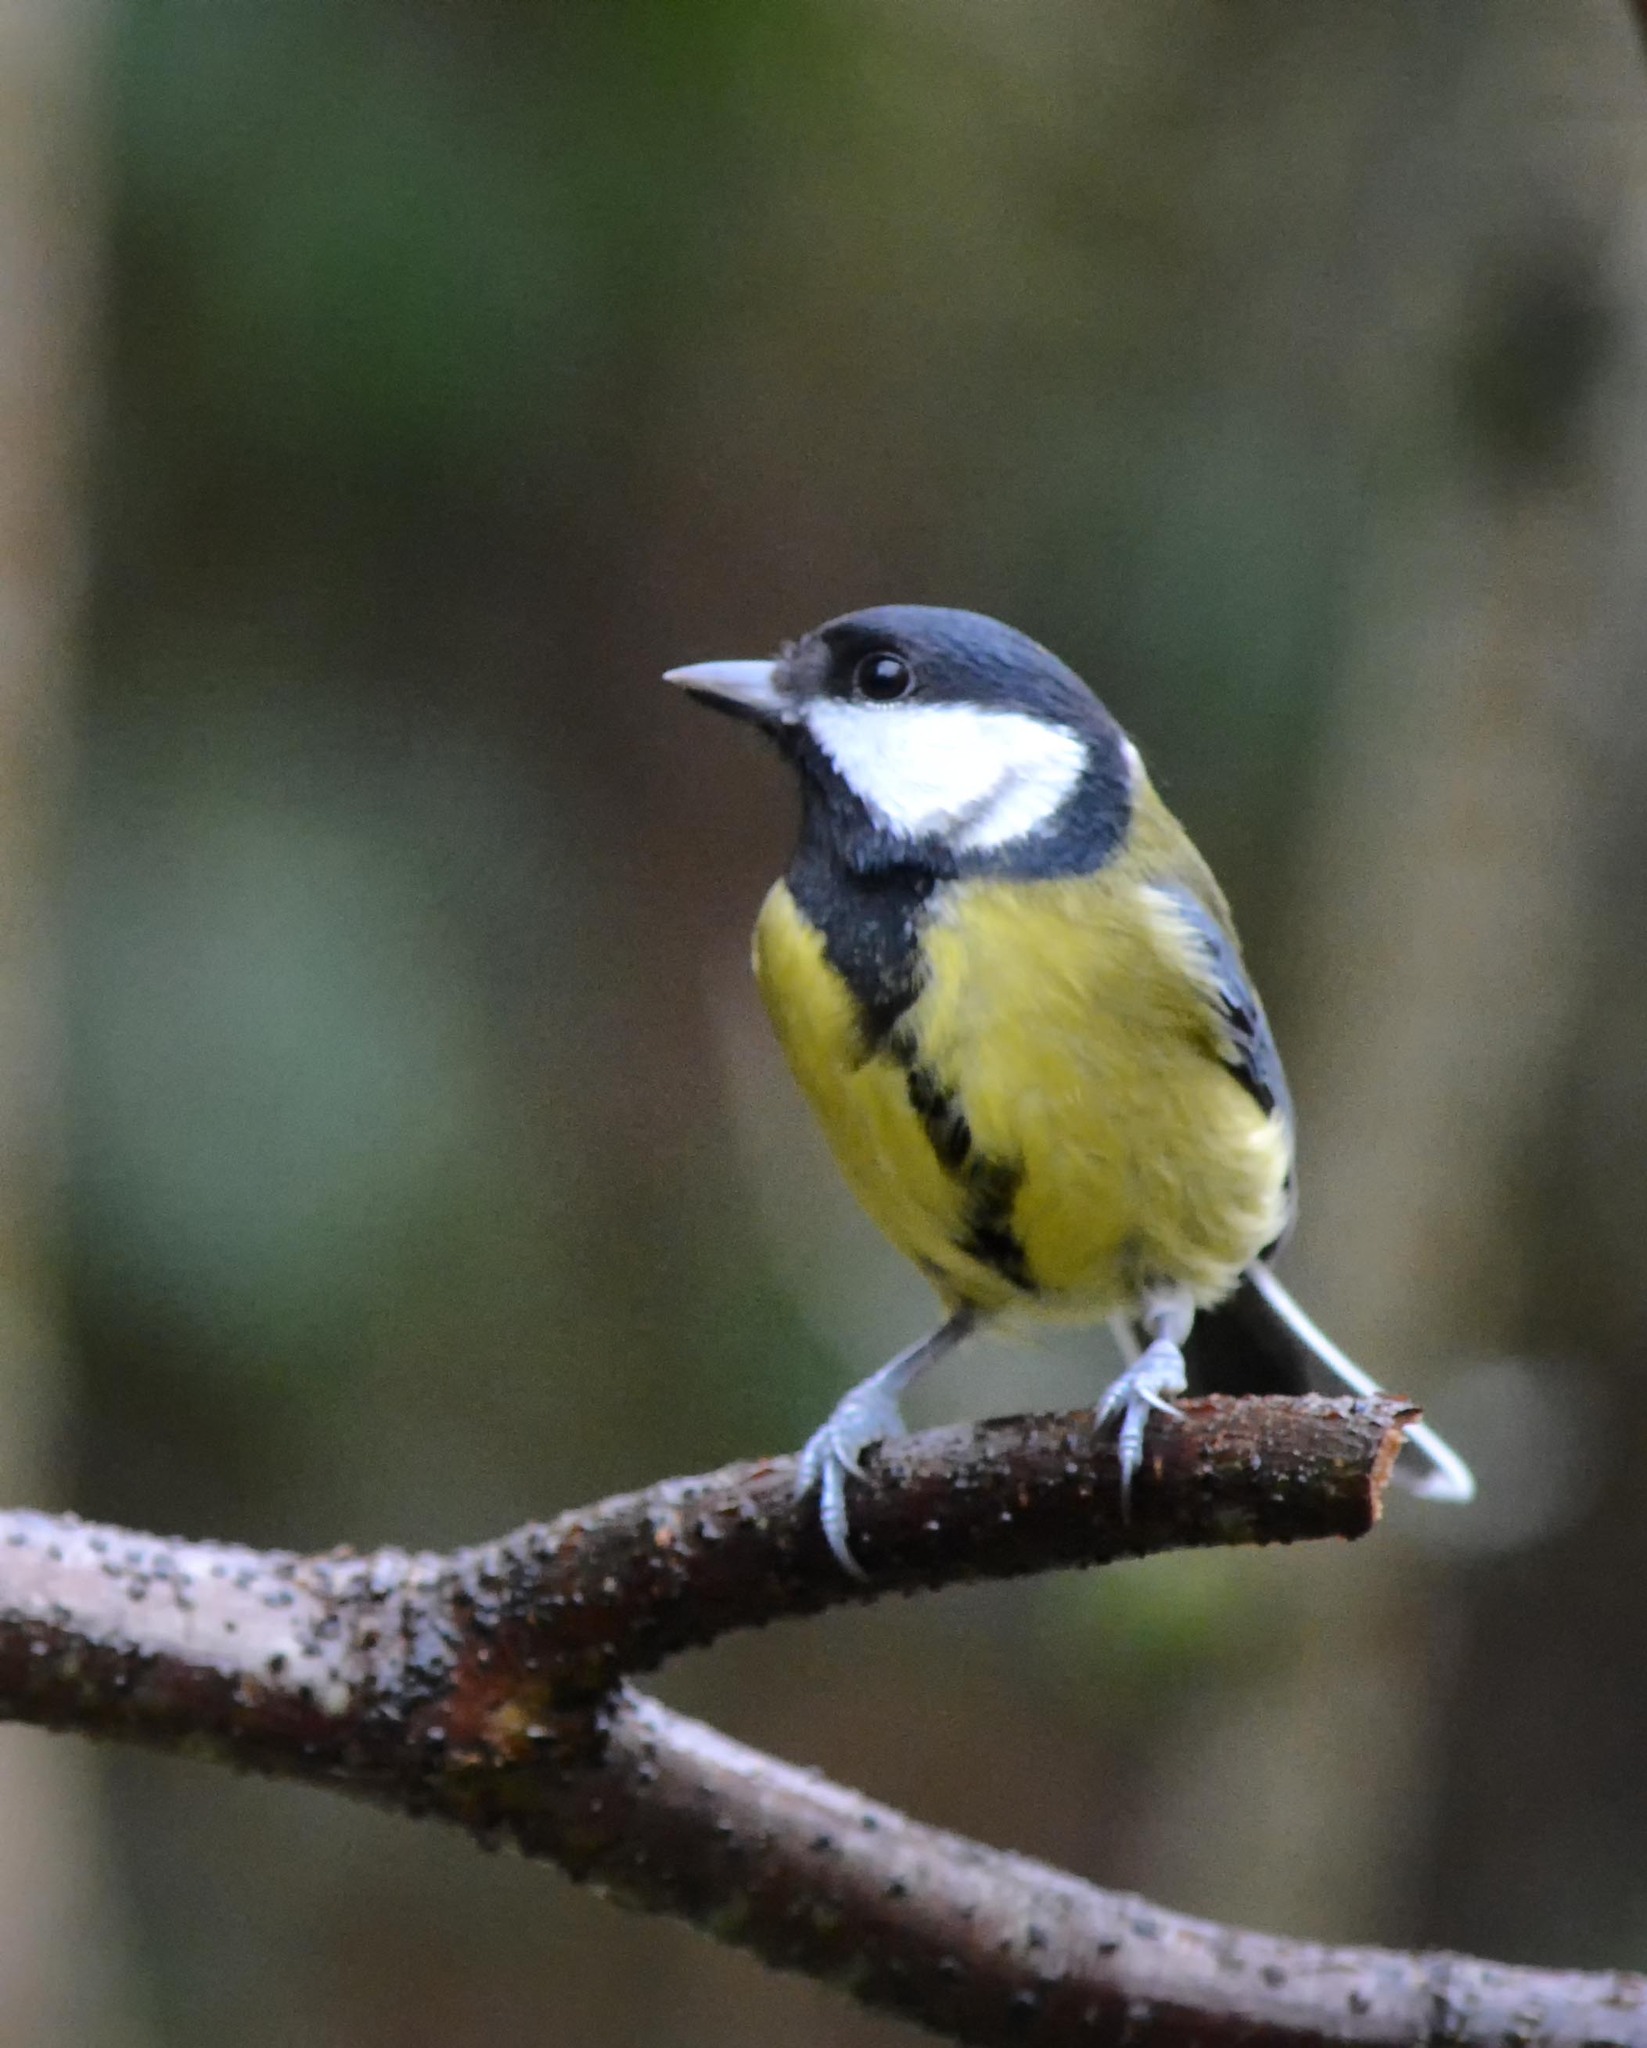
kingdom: Animalia
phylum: Chordata
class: Aves
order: Passeriformes
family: Paridae
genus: Parus
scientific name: Parus major
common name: Great tit
